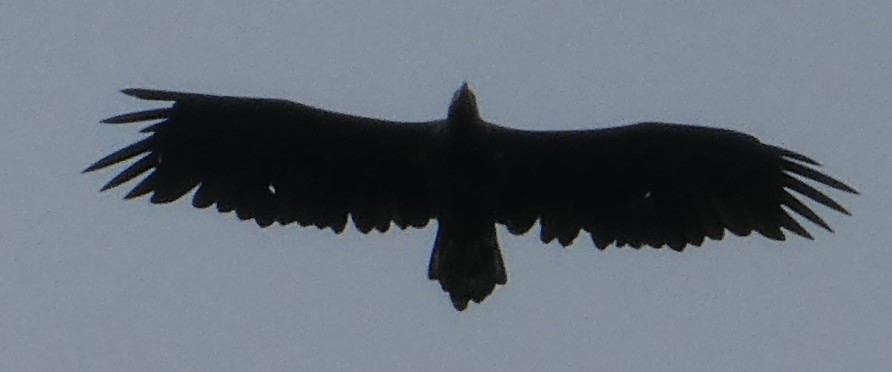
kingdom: Animalia
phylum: Chordata
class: Aves
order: Accipitriformes
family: Accipitridae
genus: Haliaeetus
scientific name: Haliaeetus albicilla
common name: White-tailed eagle
